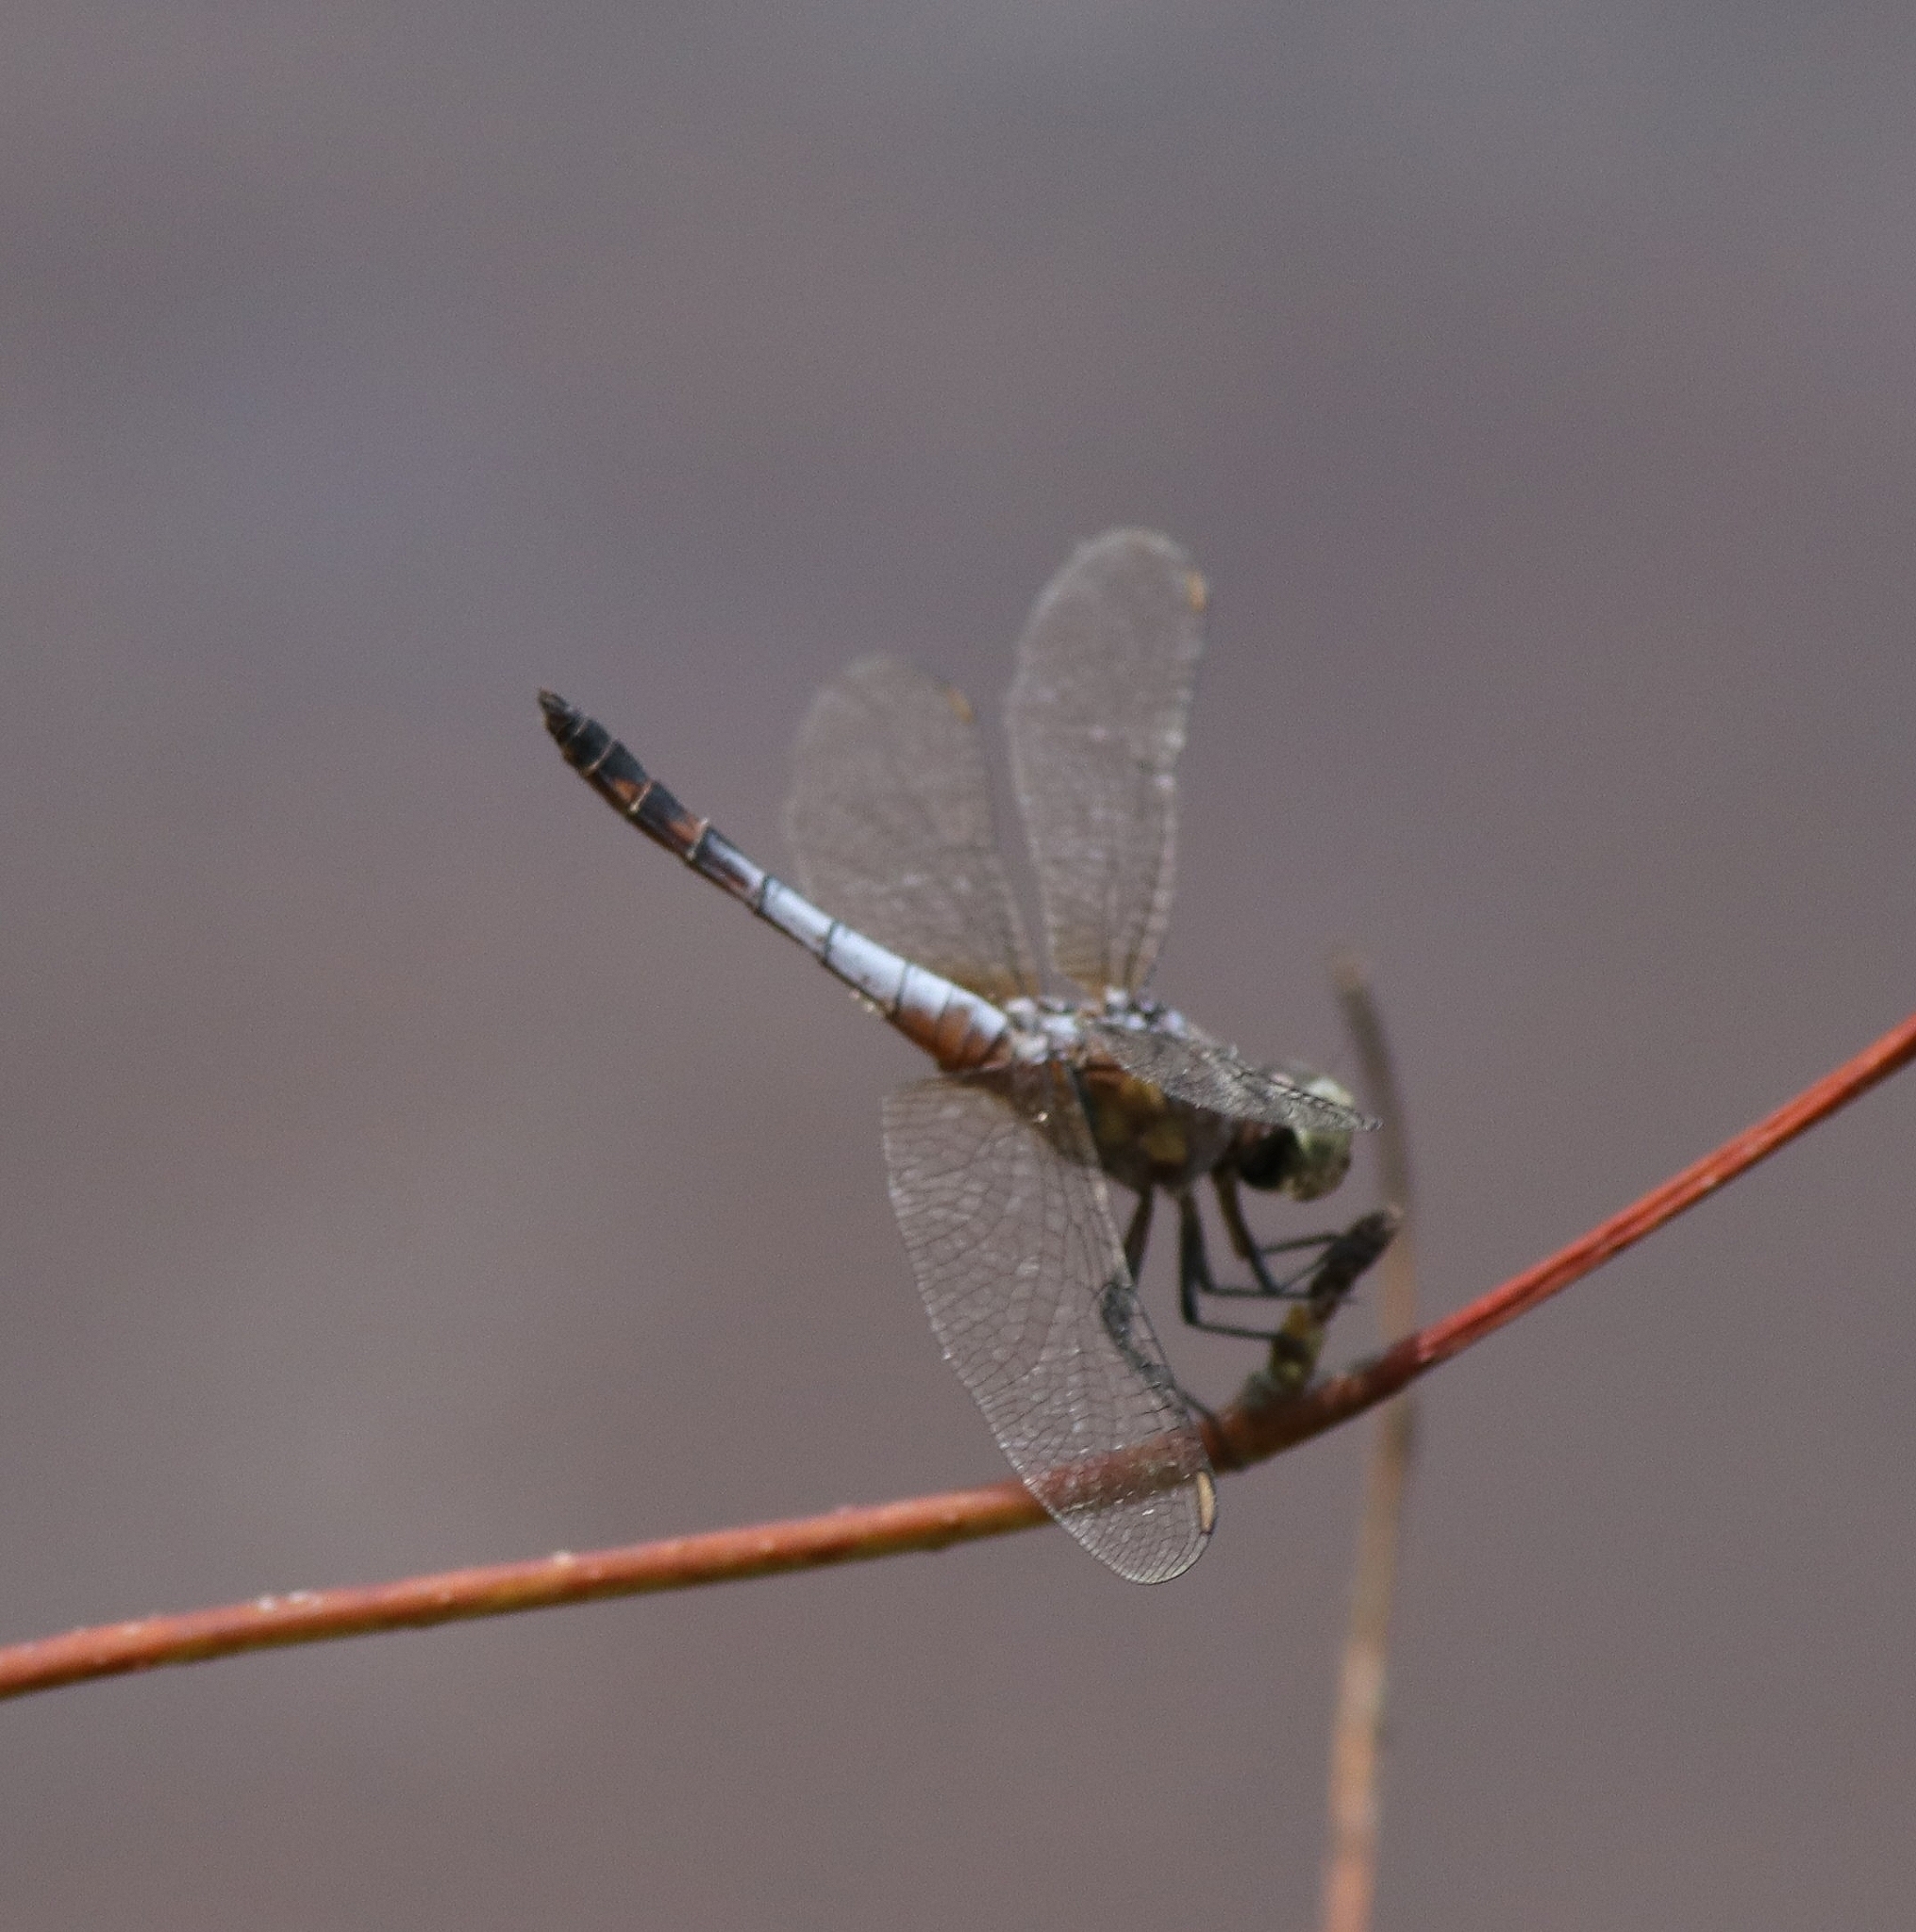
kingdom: Animalia
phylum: Arthropoda
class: Insecta
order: Odonata
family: Libellulidae
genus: Brachydiplax
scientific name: Brachydiplax chalybea
